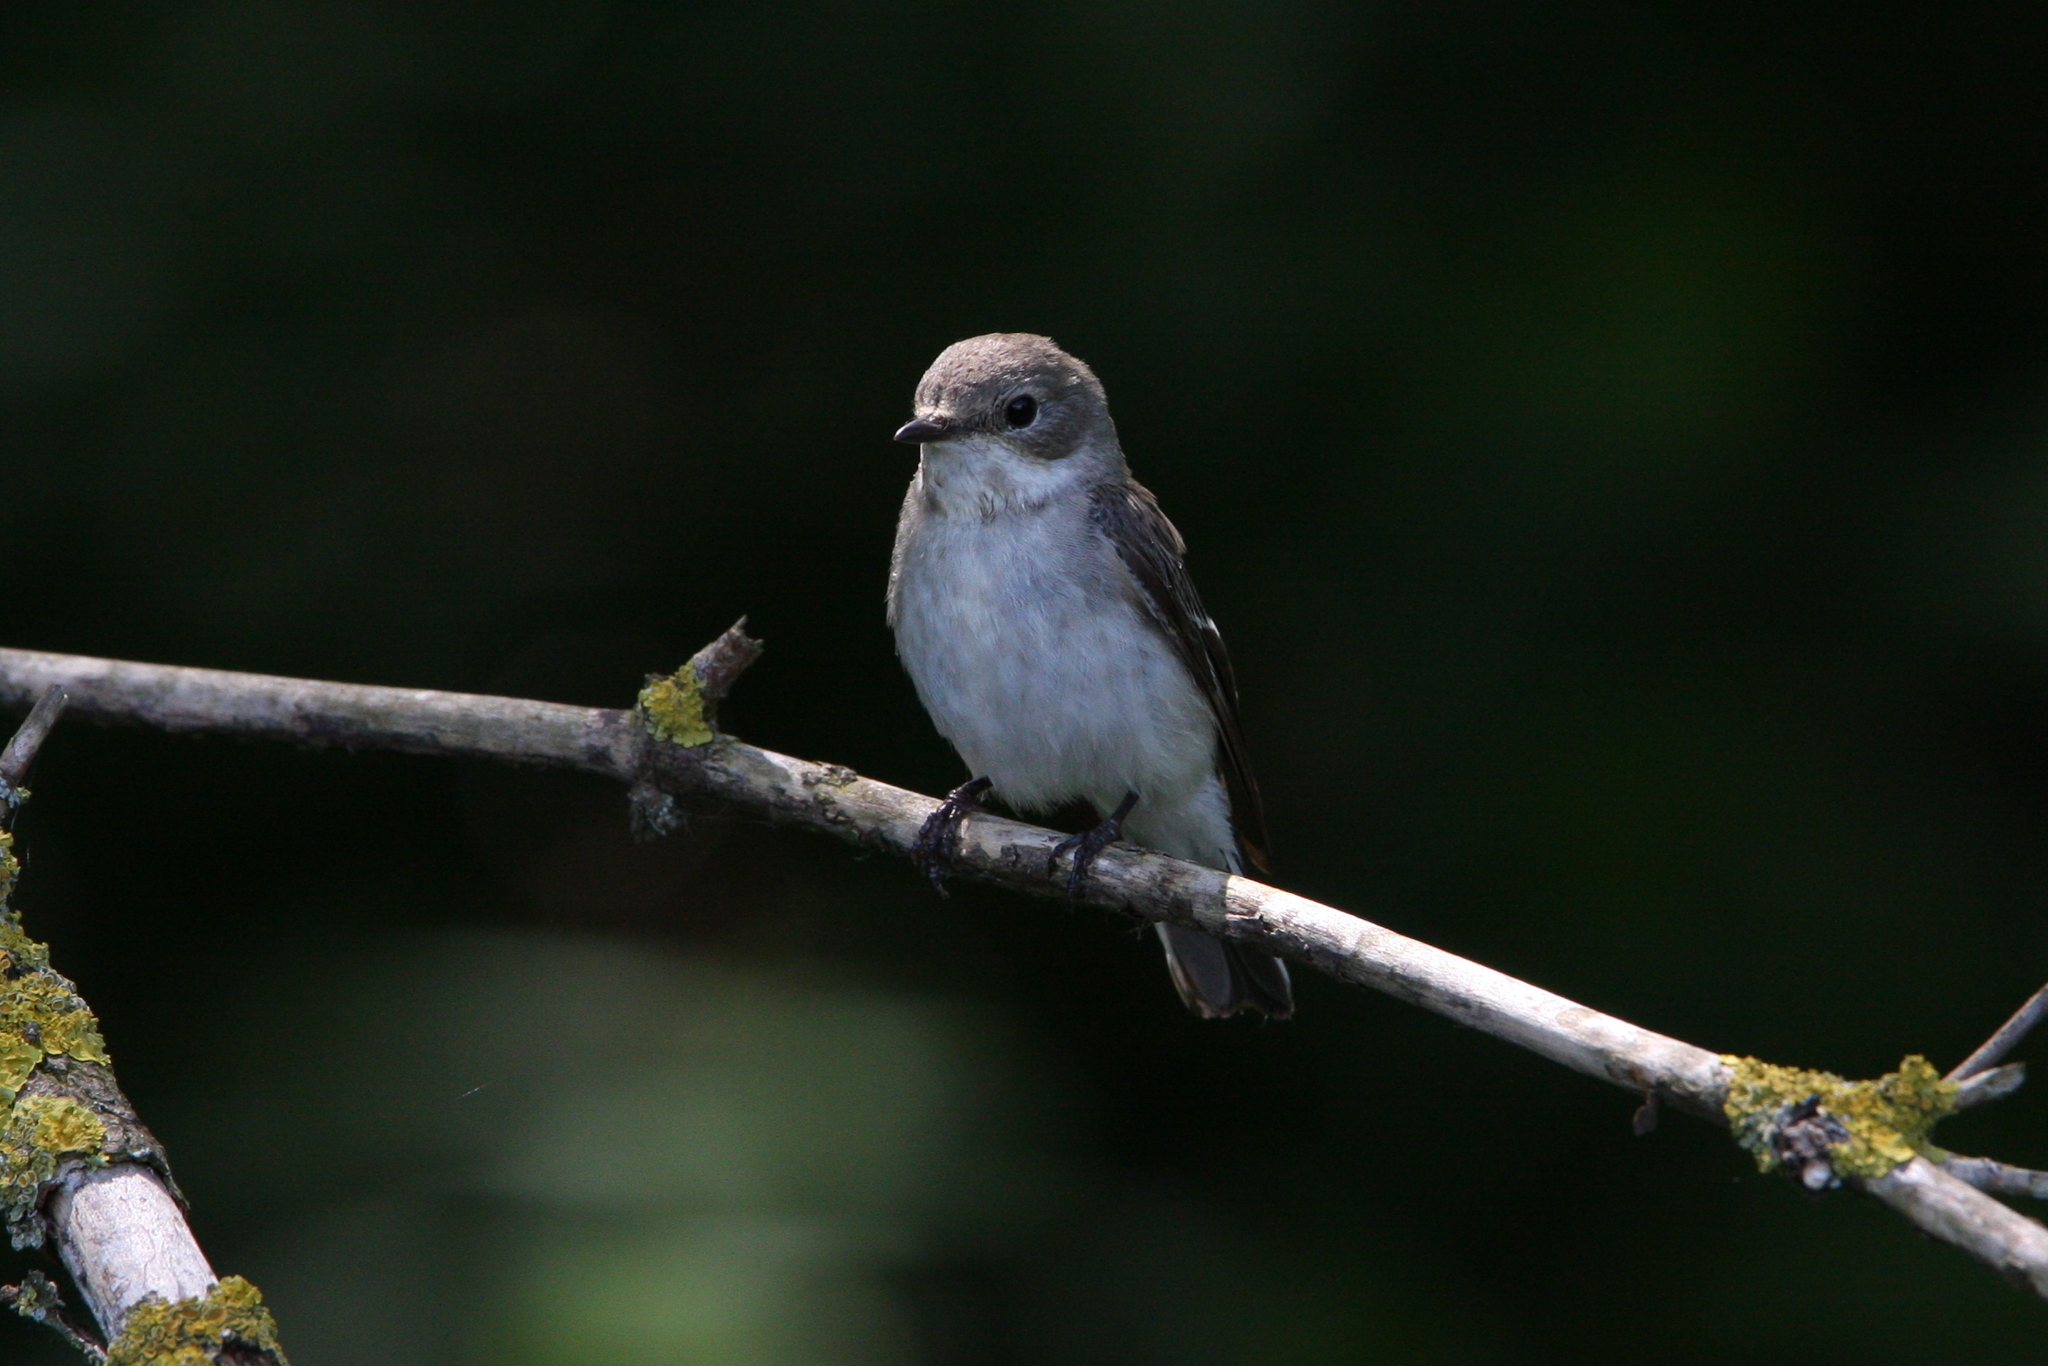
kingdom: Animalia
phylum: Chordata
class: Aves
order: Passeriformes
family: Muscicapidae
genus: Ficedula
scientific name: Ficedula albicollis
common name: Collared flycatcher
